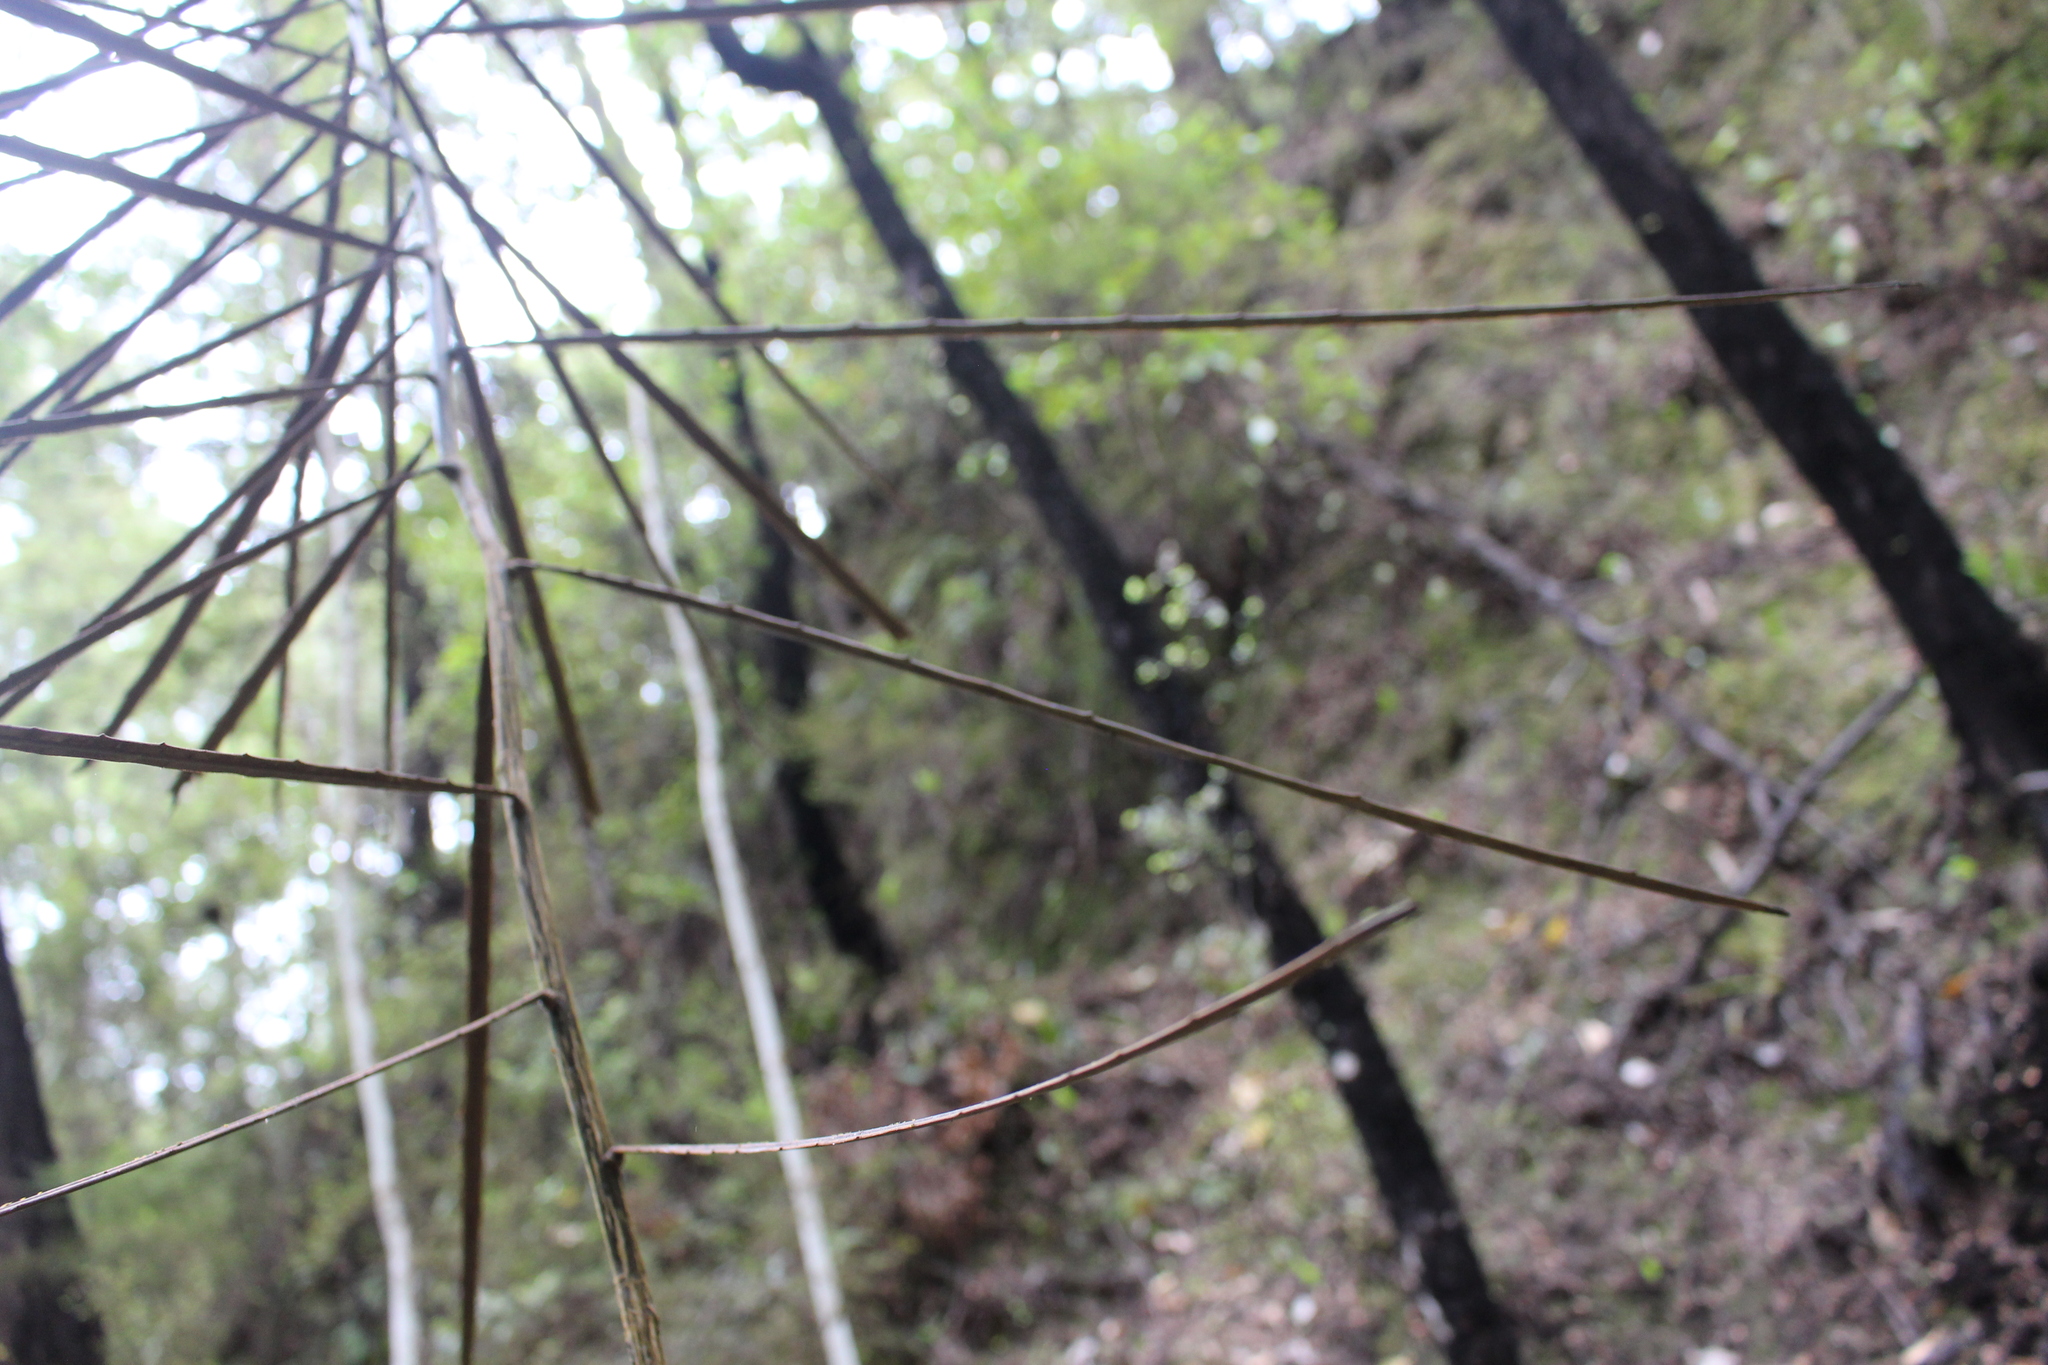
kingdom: Plantae
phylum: Tracheophyta
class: Magnoliopsida
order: Apiales
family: Araliaceae
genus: Pseudopanax
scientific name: Pseudopanax crassifolius
